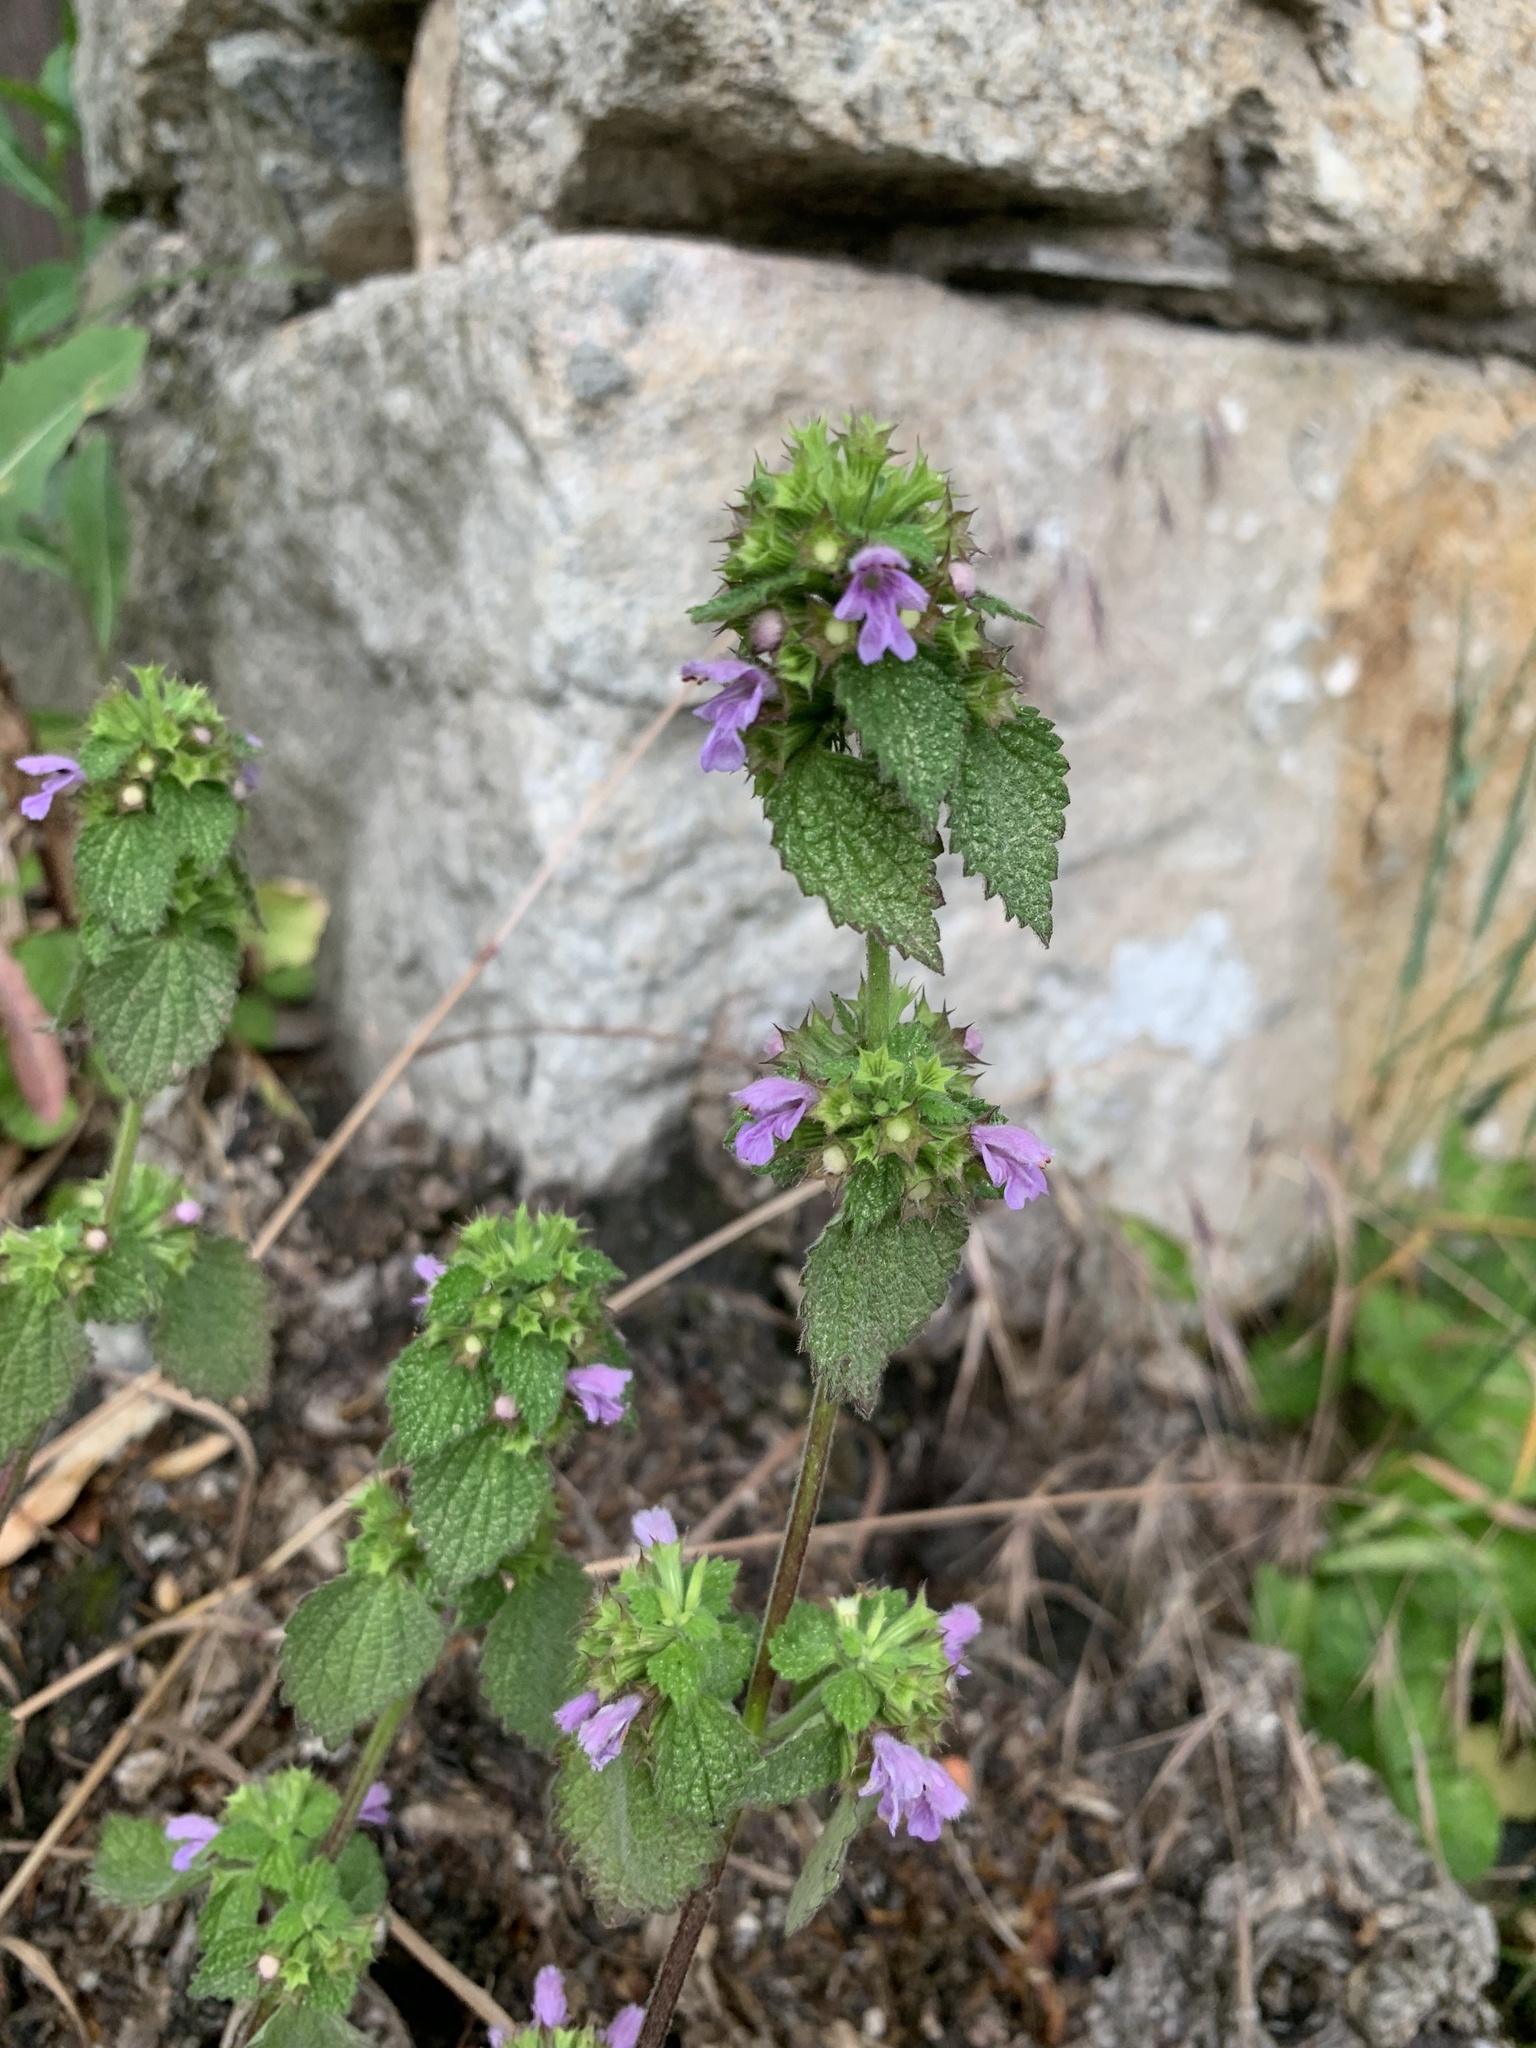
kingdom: Plantae
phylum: Tracheophyta
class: Magnoliopsida
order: Lamiales
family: Lamiaceae
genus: Ballota
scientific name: Ballota nigra
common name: Black horehound
